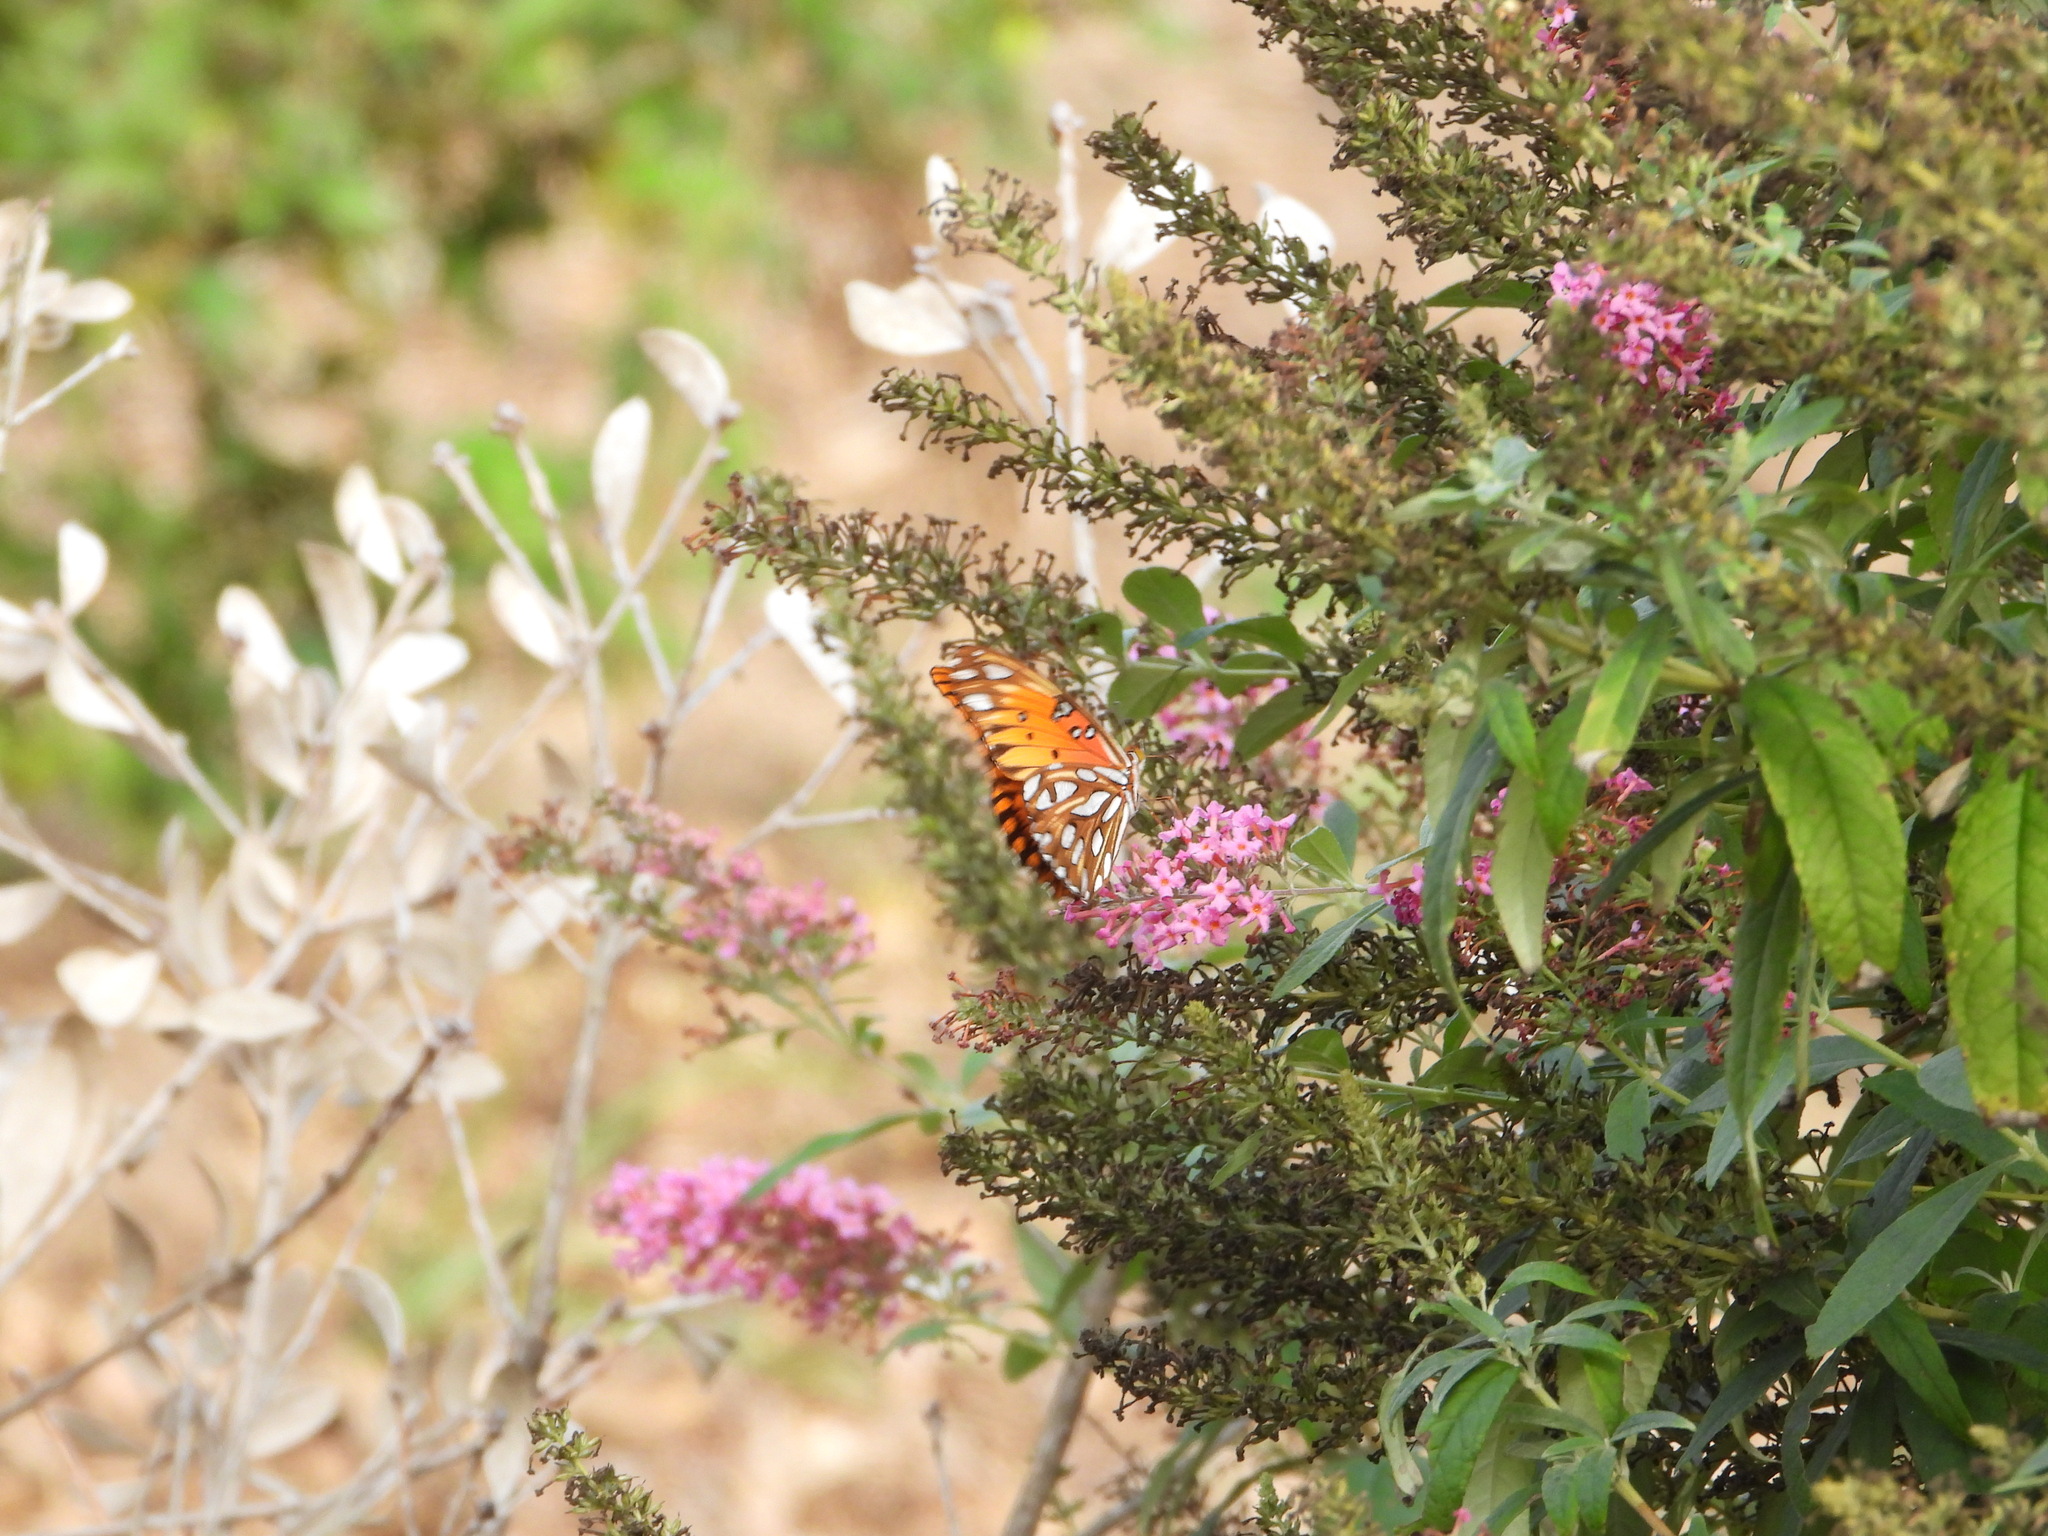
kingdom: Animalia
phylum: Arthropoda
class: Insecta
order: Lepidoptera
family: Nymphalidae
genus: Dione
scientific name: Dione vanillae
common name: Gulf fritillary
